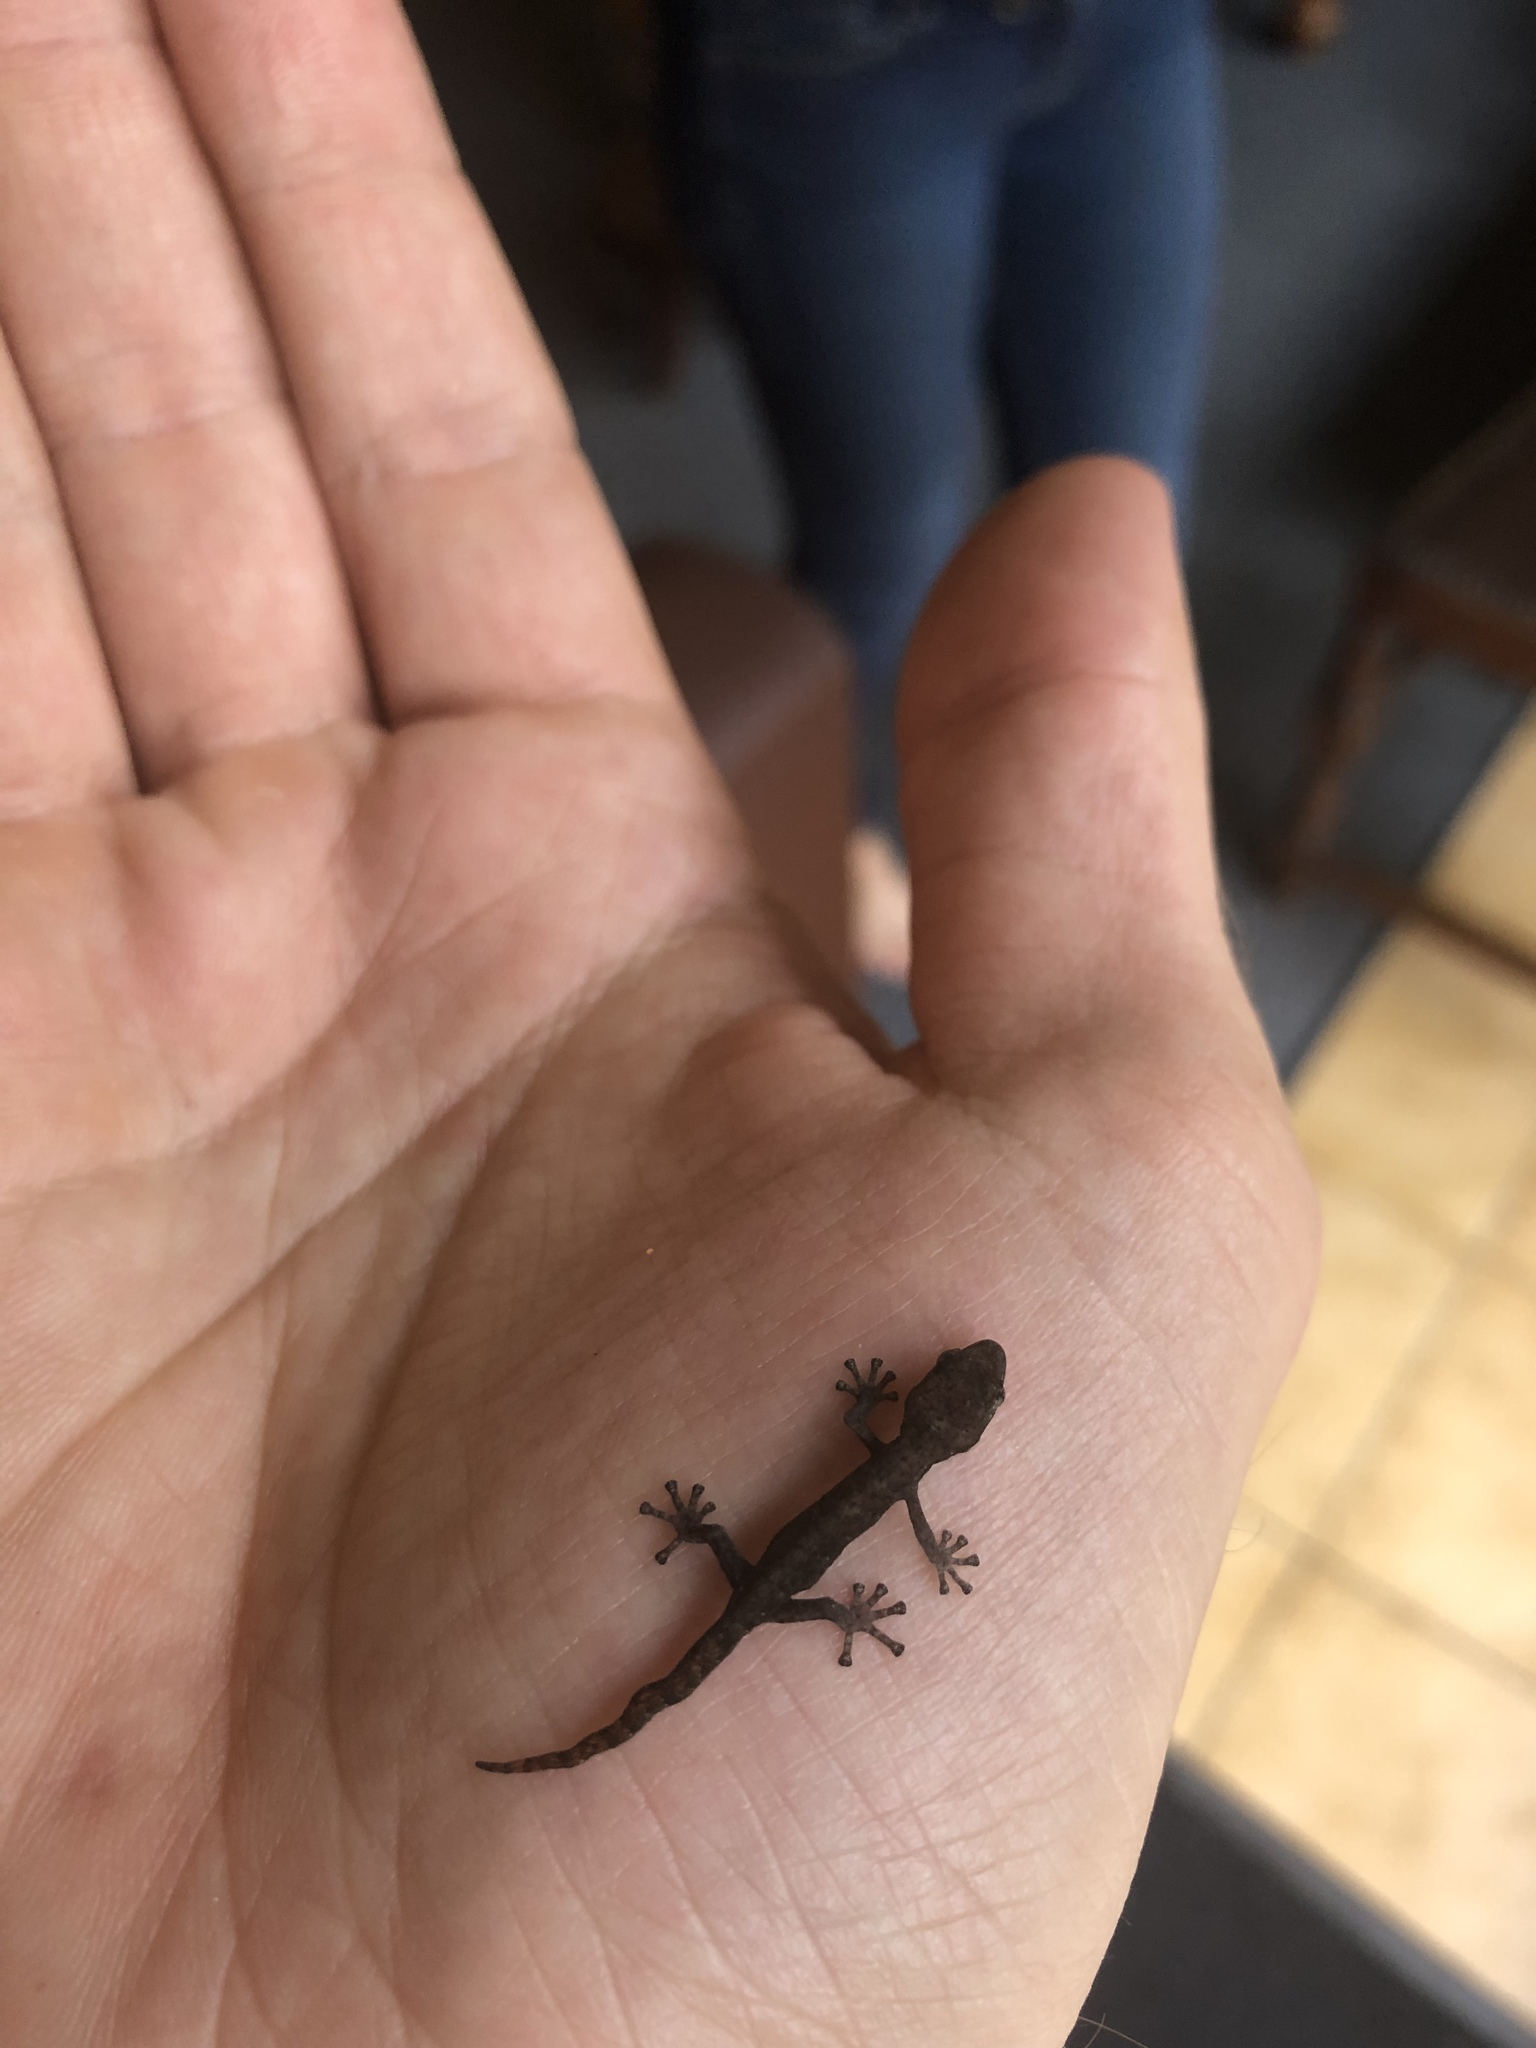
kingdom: Animalia
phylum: Chordata
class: Squamata
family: Gekkonidae
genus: Afrogecko
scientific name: Afrogecko porphyreus
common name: Marbled leaf-toed gecko
